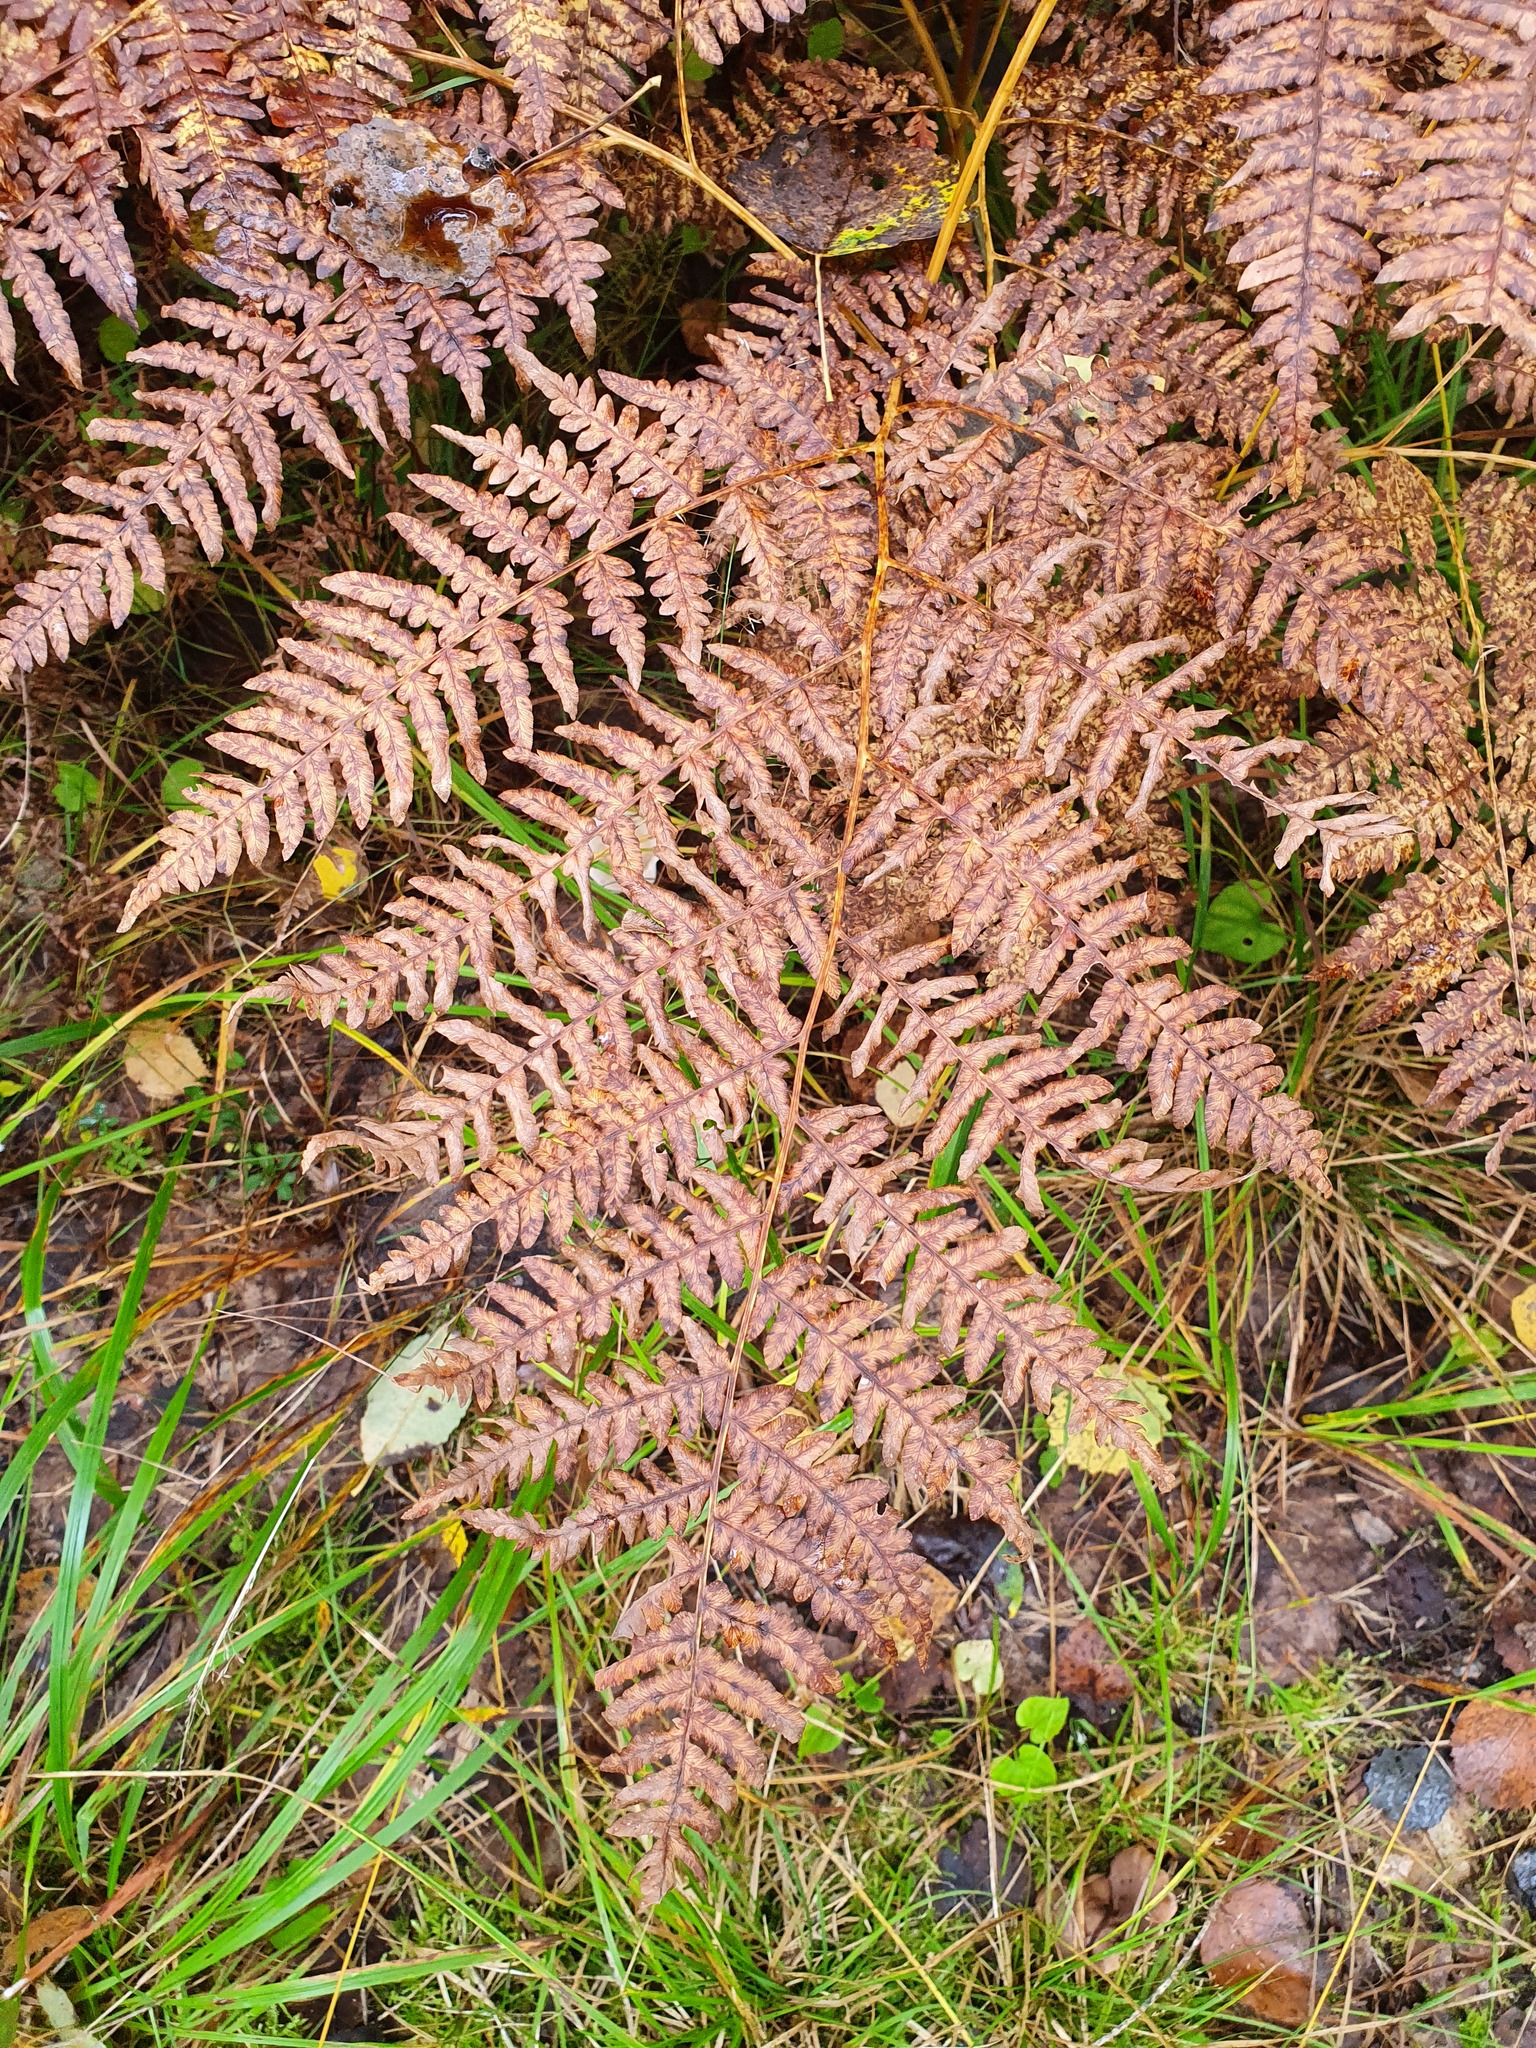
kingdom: Plantae
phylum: Tracheophyta
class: Polypodiopsida
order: Polypodiales
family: Dennstaedtiaceae
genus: Pteridium
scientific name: Pteridium aquilinum
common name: Bracken
